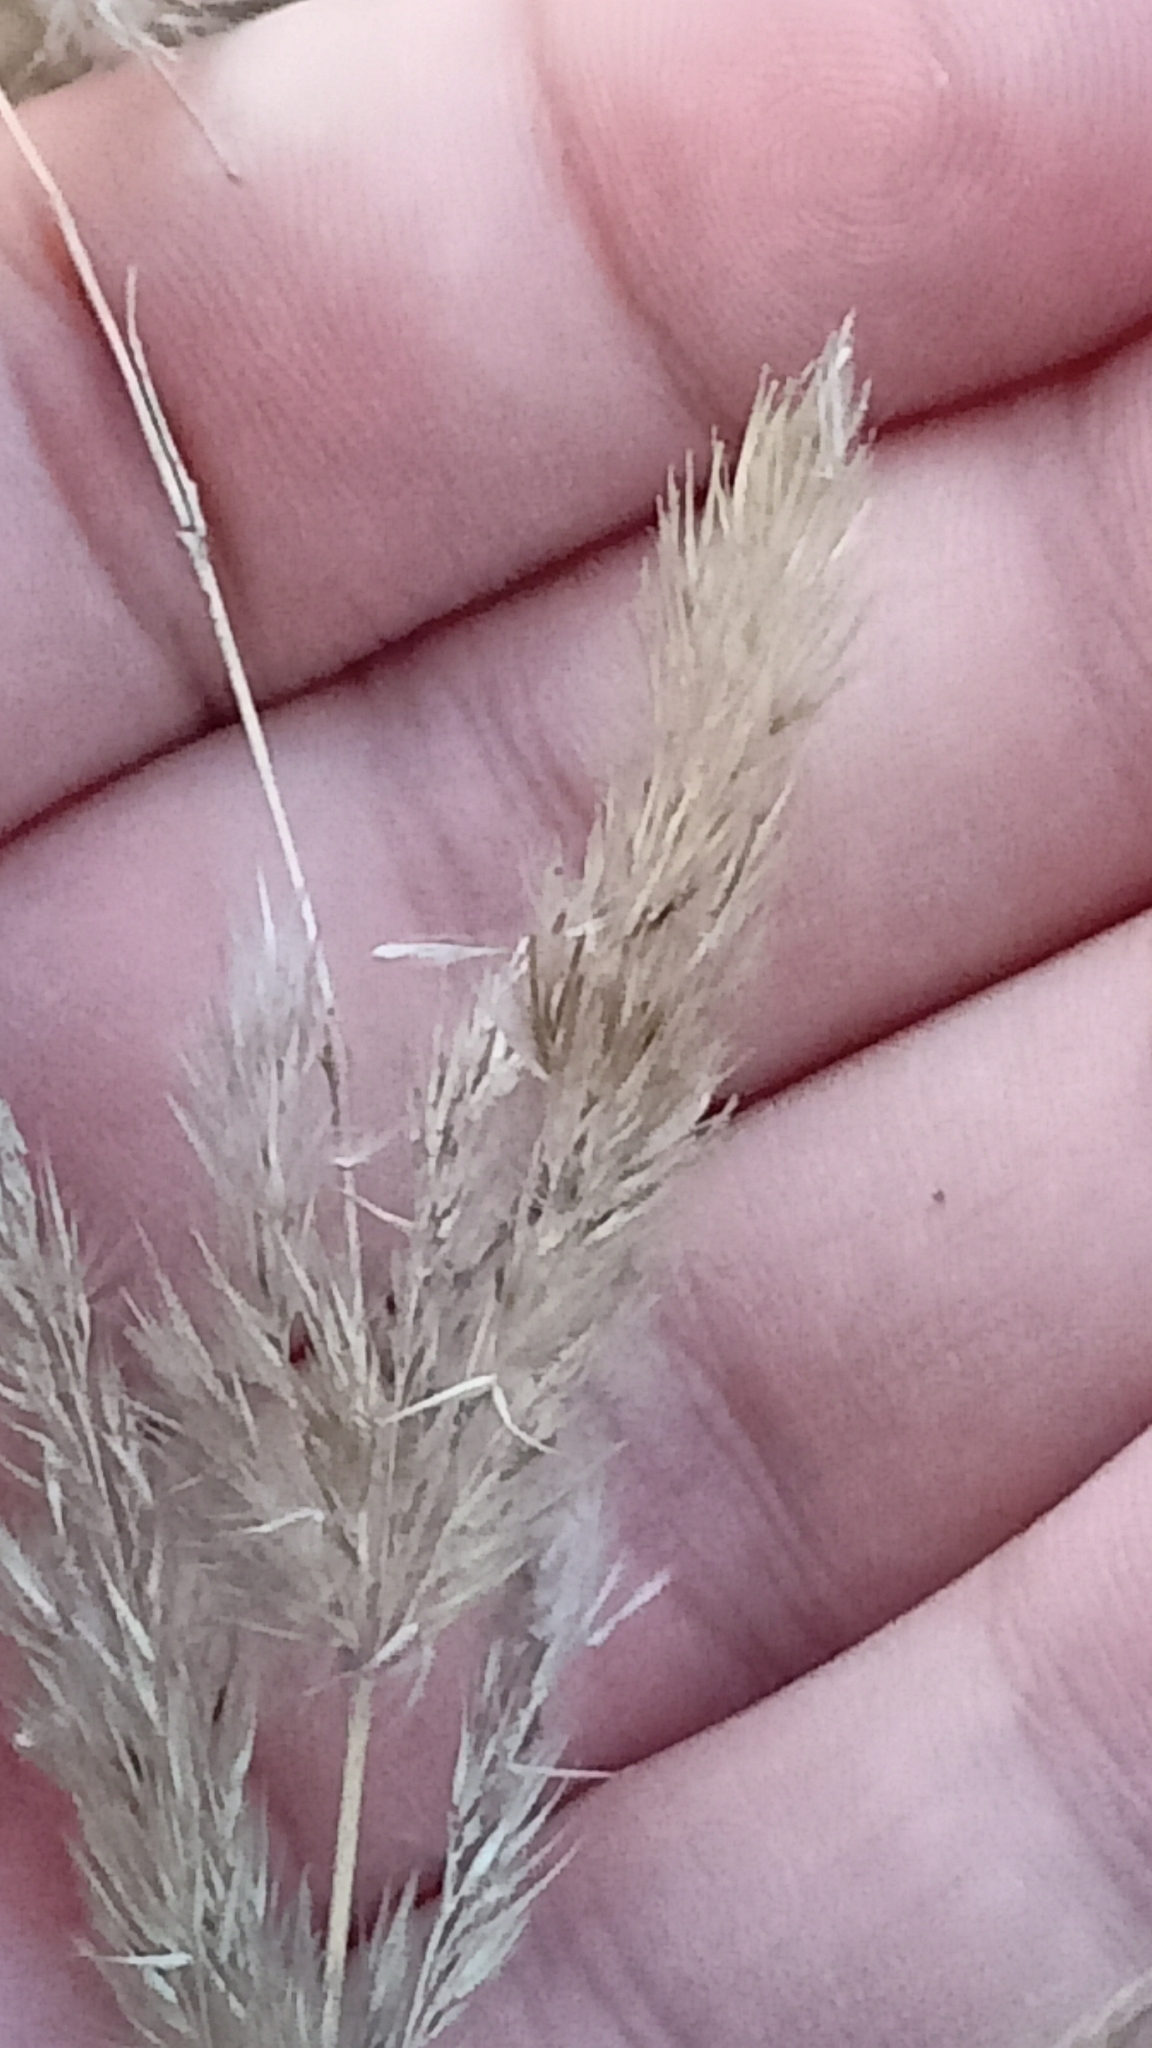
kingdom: Plantae
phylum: Tracheophyta
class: Liliopsida
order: Poales
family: Poaceae
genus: Calamagrostis
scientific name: Calamagrostis epigejos
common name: Wood small-reed
